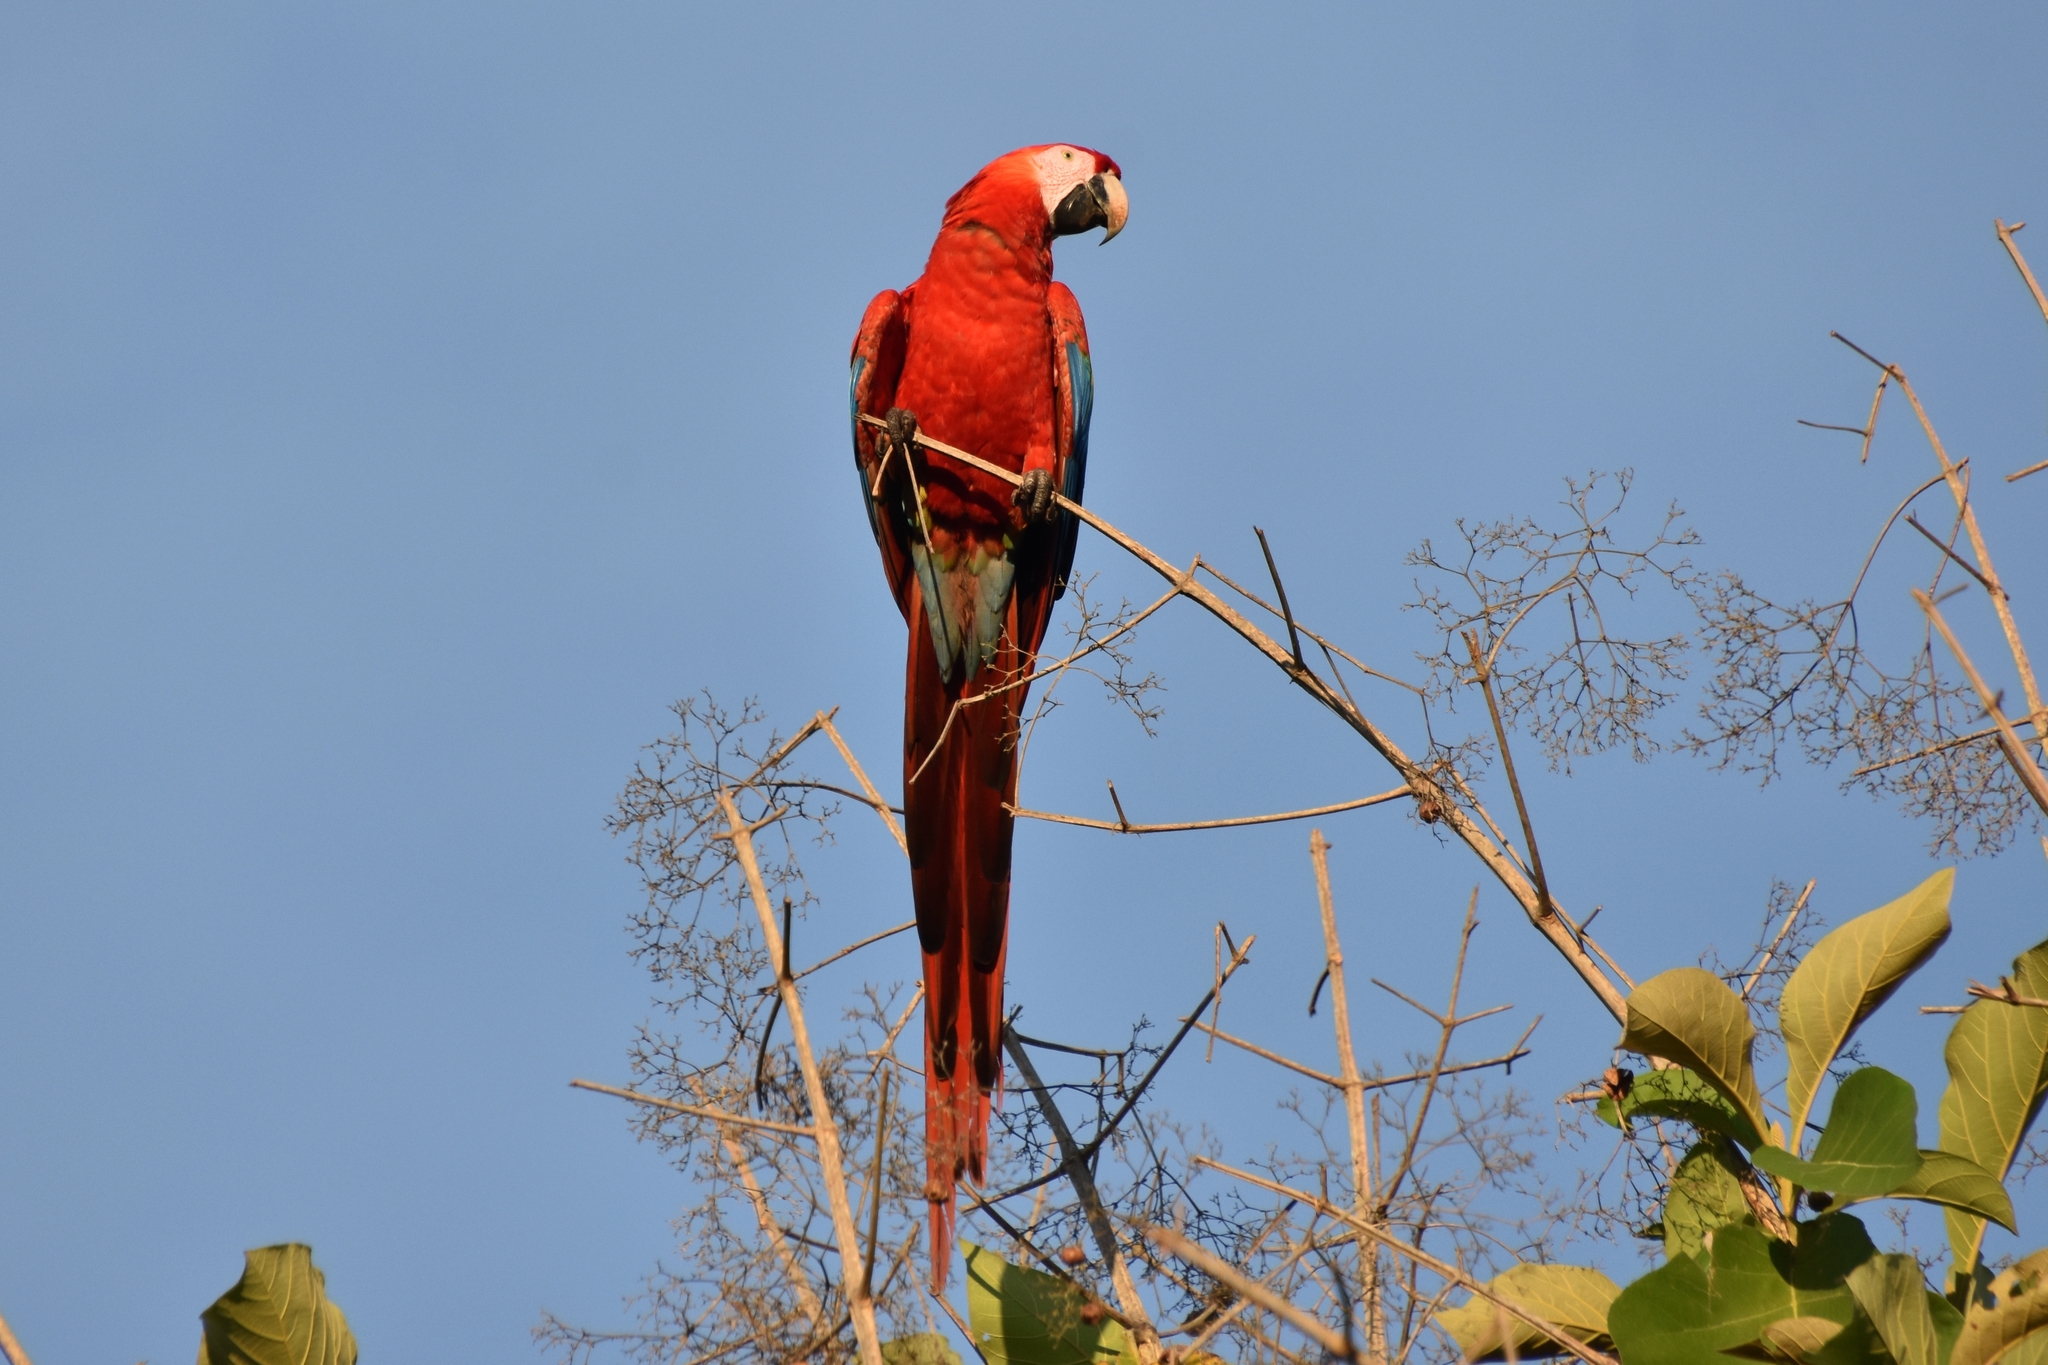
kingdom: Animalia
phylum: Chordata
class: Aves
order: Psittaciformes
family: Psittacidae
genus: Ara
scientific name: Ara macao
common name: Scarlet macaw
